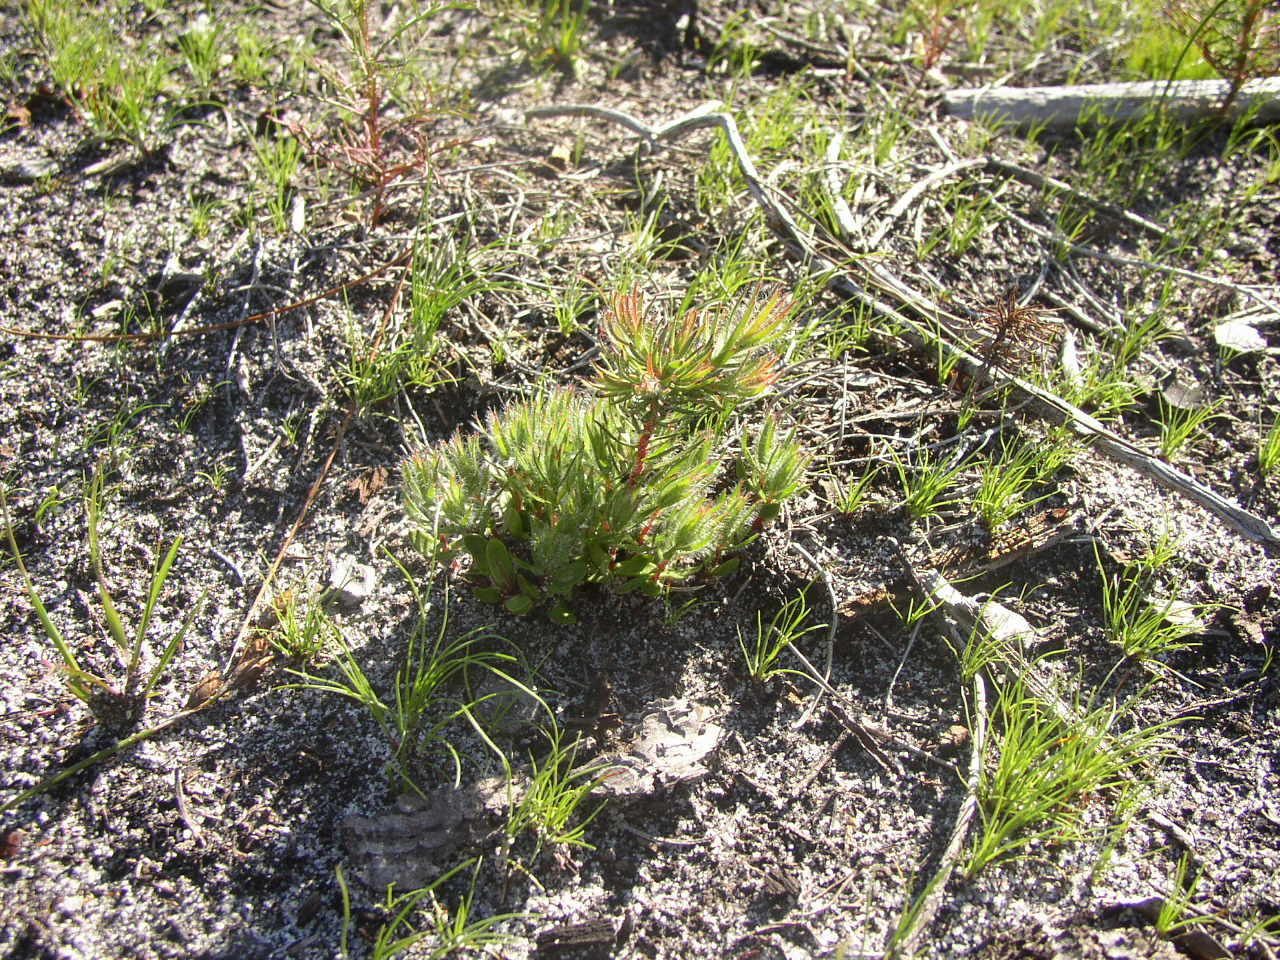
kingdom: Plantae
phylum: Tracheophyta
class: Magnoliopsida
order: Proteales
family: Proteaceae
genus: Diastella
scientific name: Diastella proteoides
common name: Flats silkypuff
